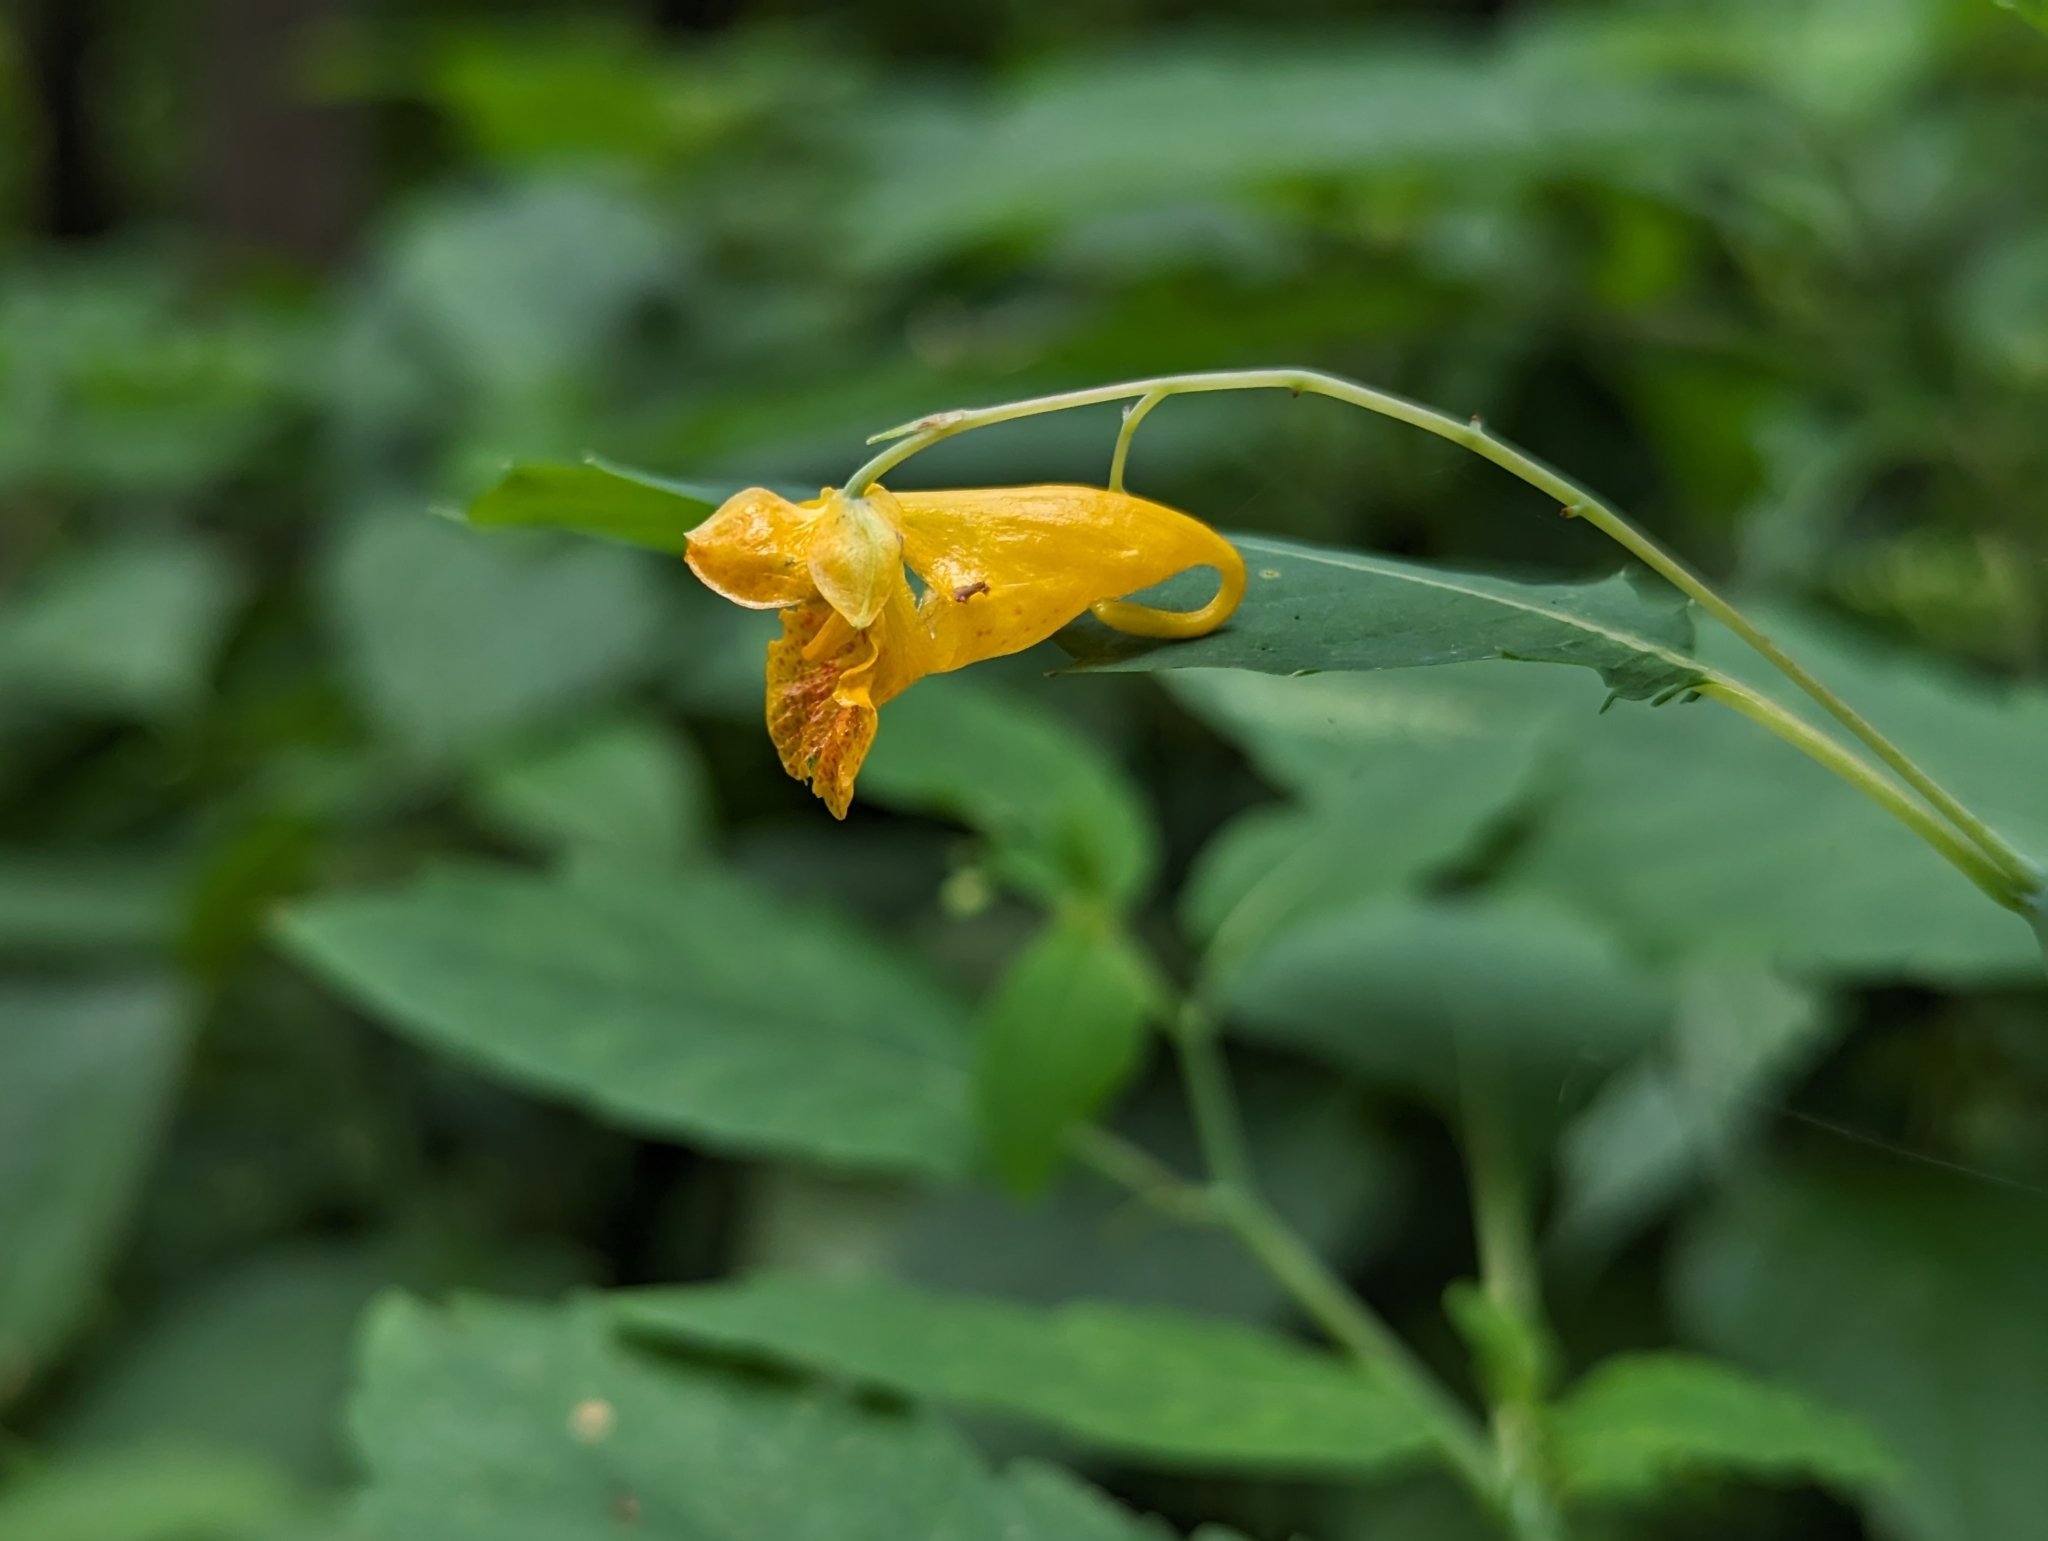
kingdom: Plantae
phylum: Tracheophyta
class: Magnoliopsida
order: Ericales
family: Balsaminaceae
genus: Impatiens
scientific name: Impatiens capensis
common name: Orange balsam
